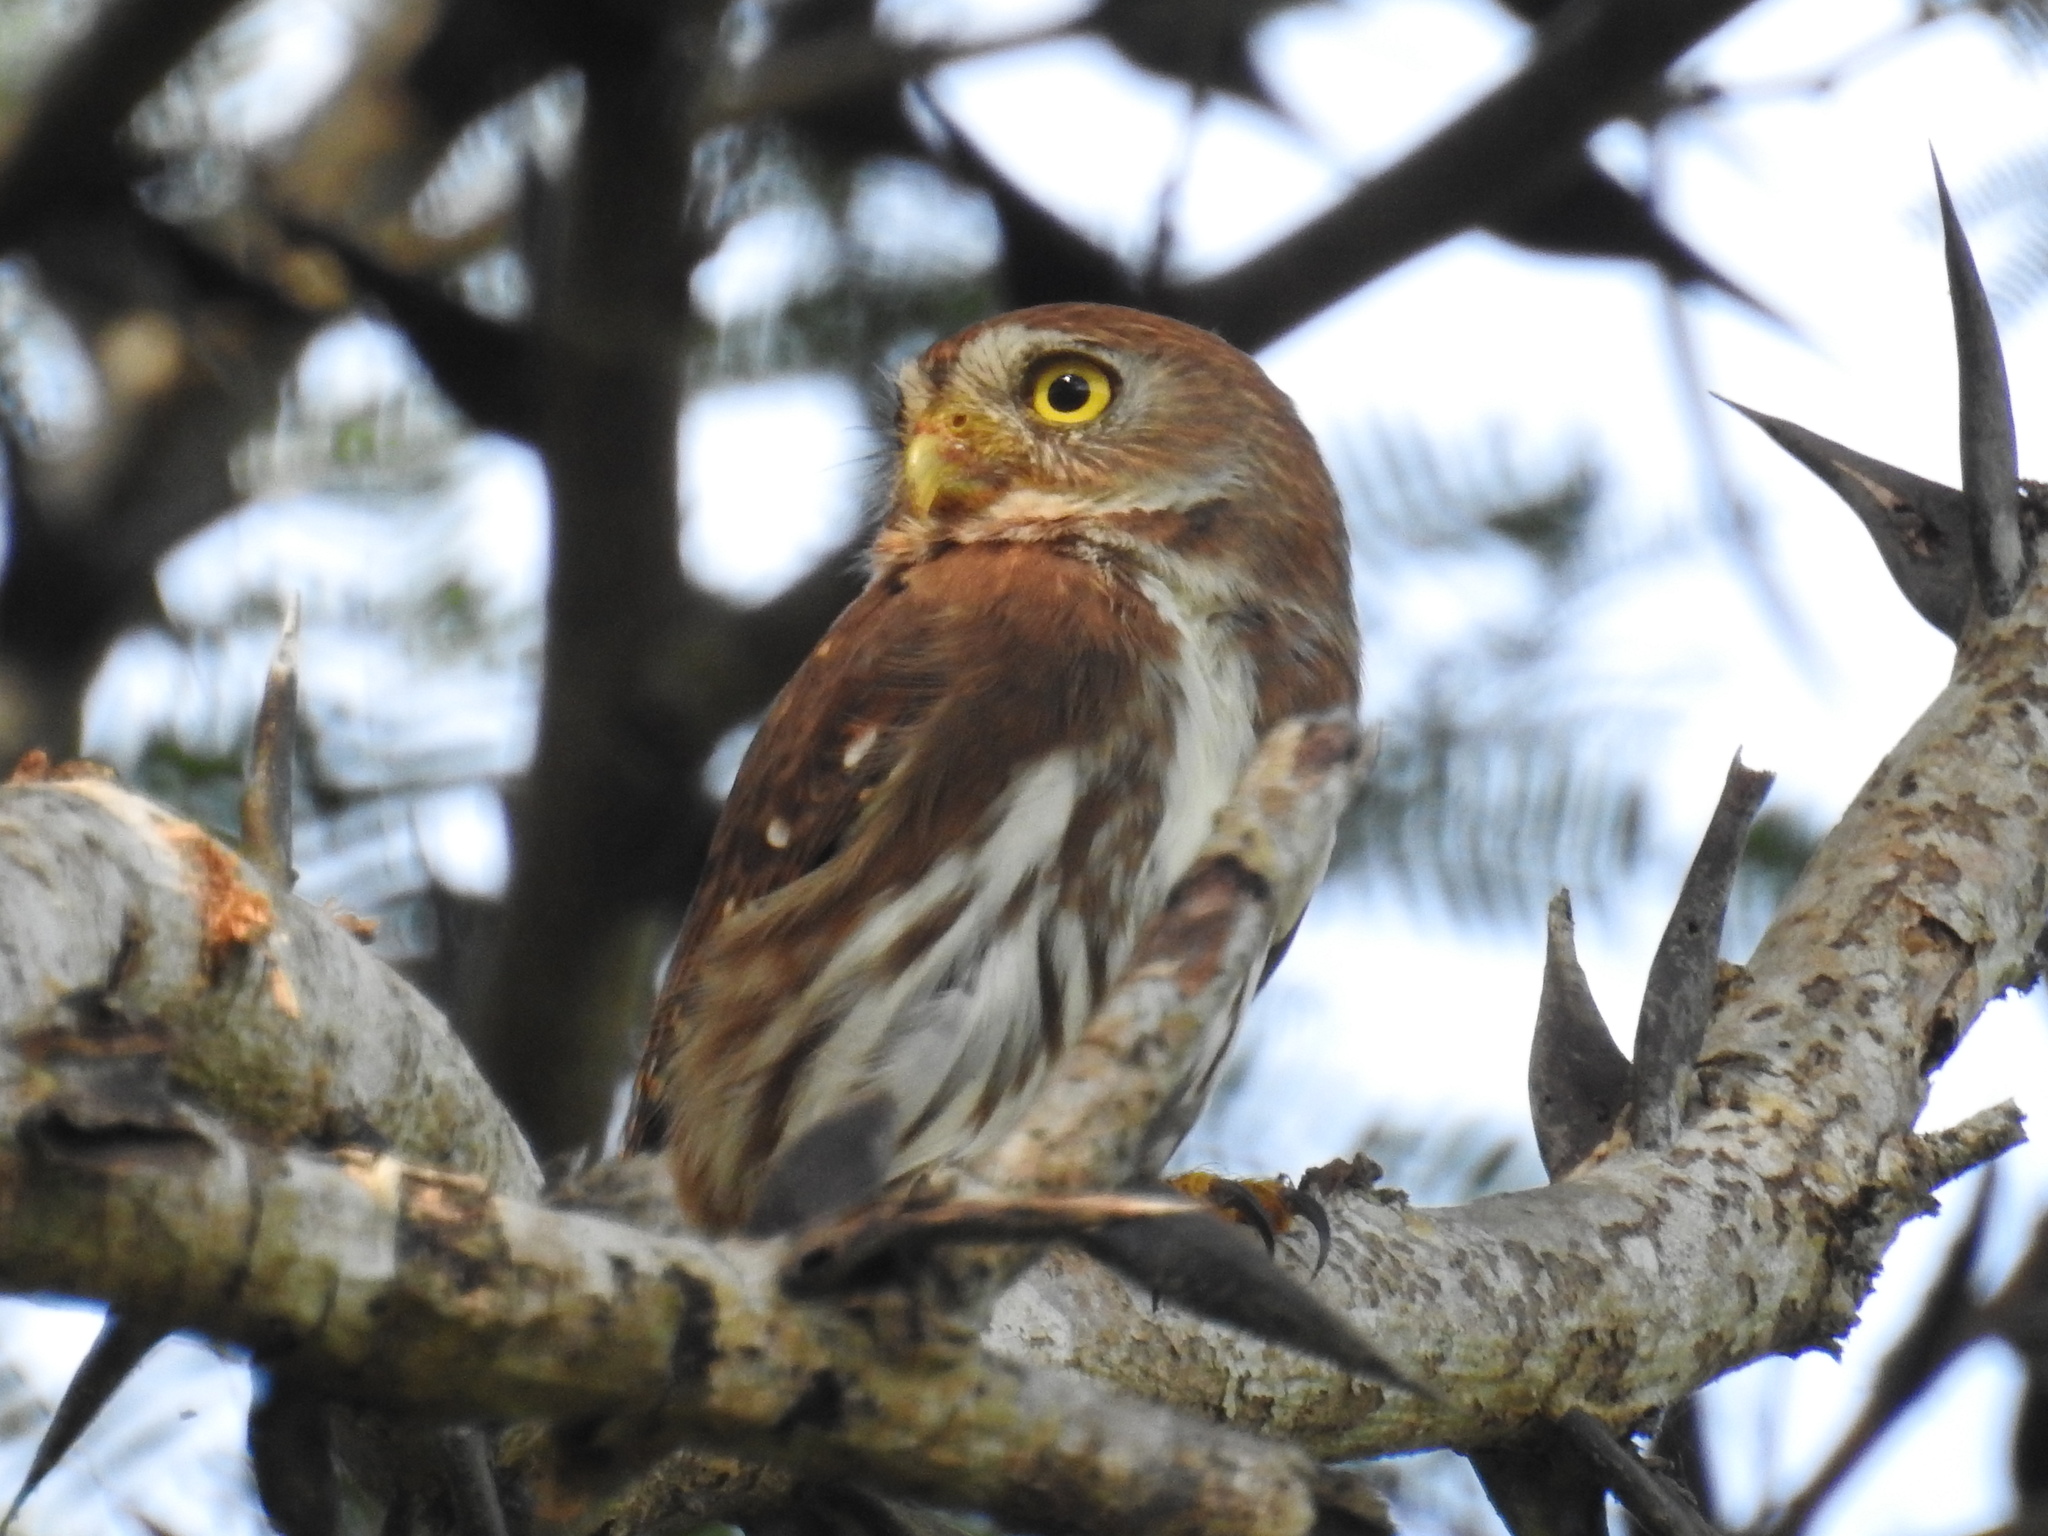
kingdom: Animalia
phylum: Chordata
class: Aves
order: Strigiformes
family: Strigidae
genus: Glaucidium
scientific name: Glaucidium brasilianum
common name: Ferruginous pygmy-owl
